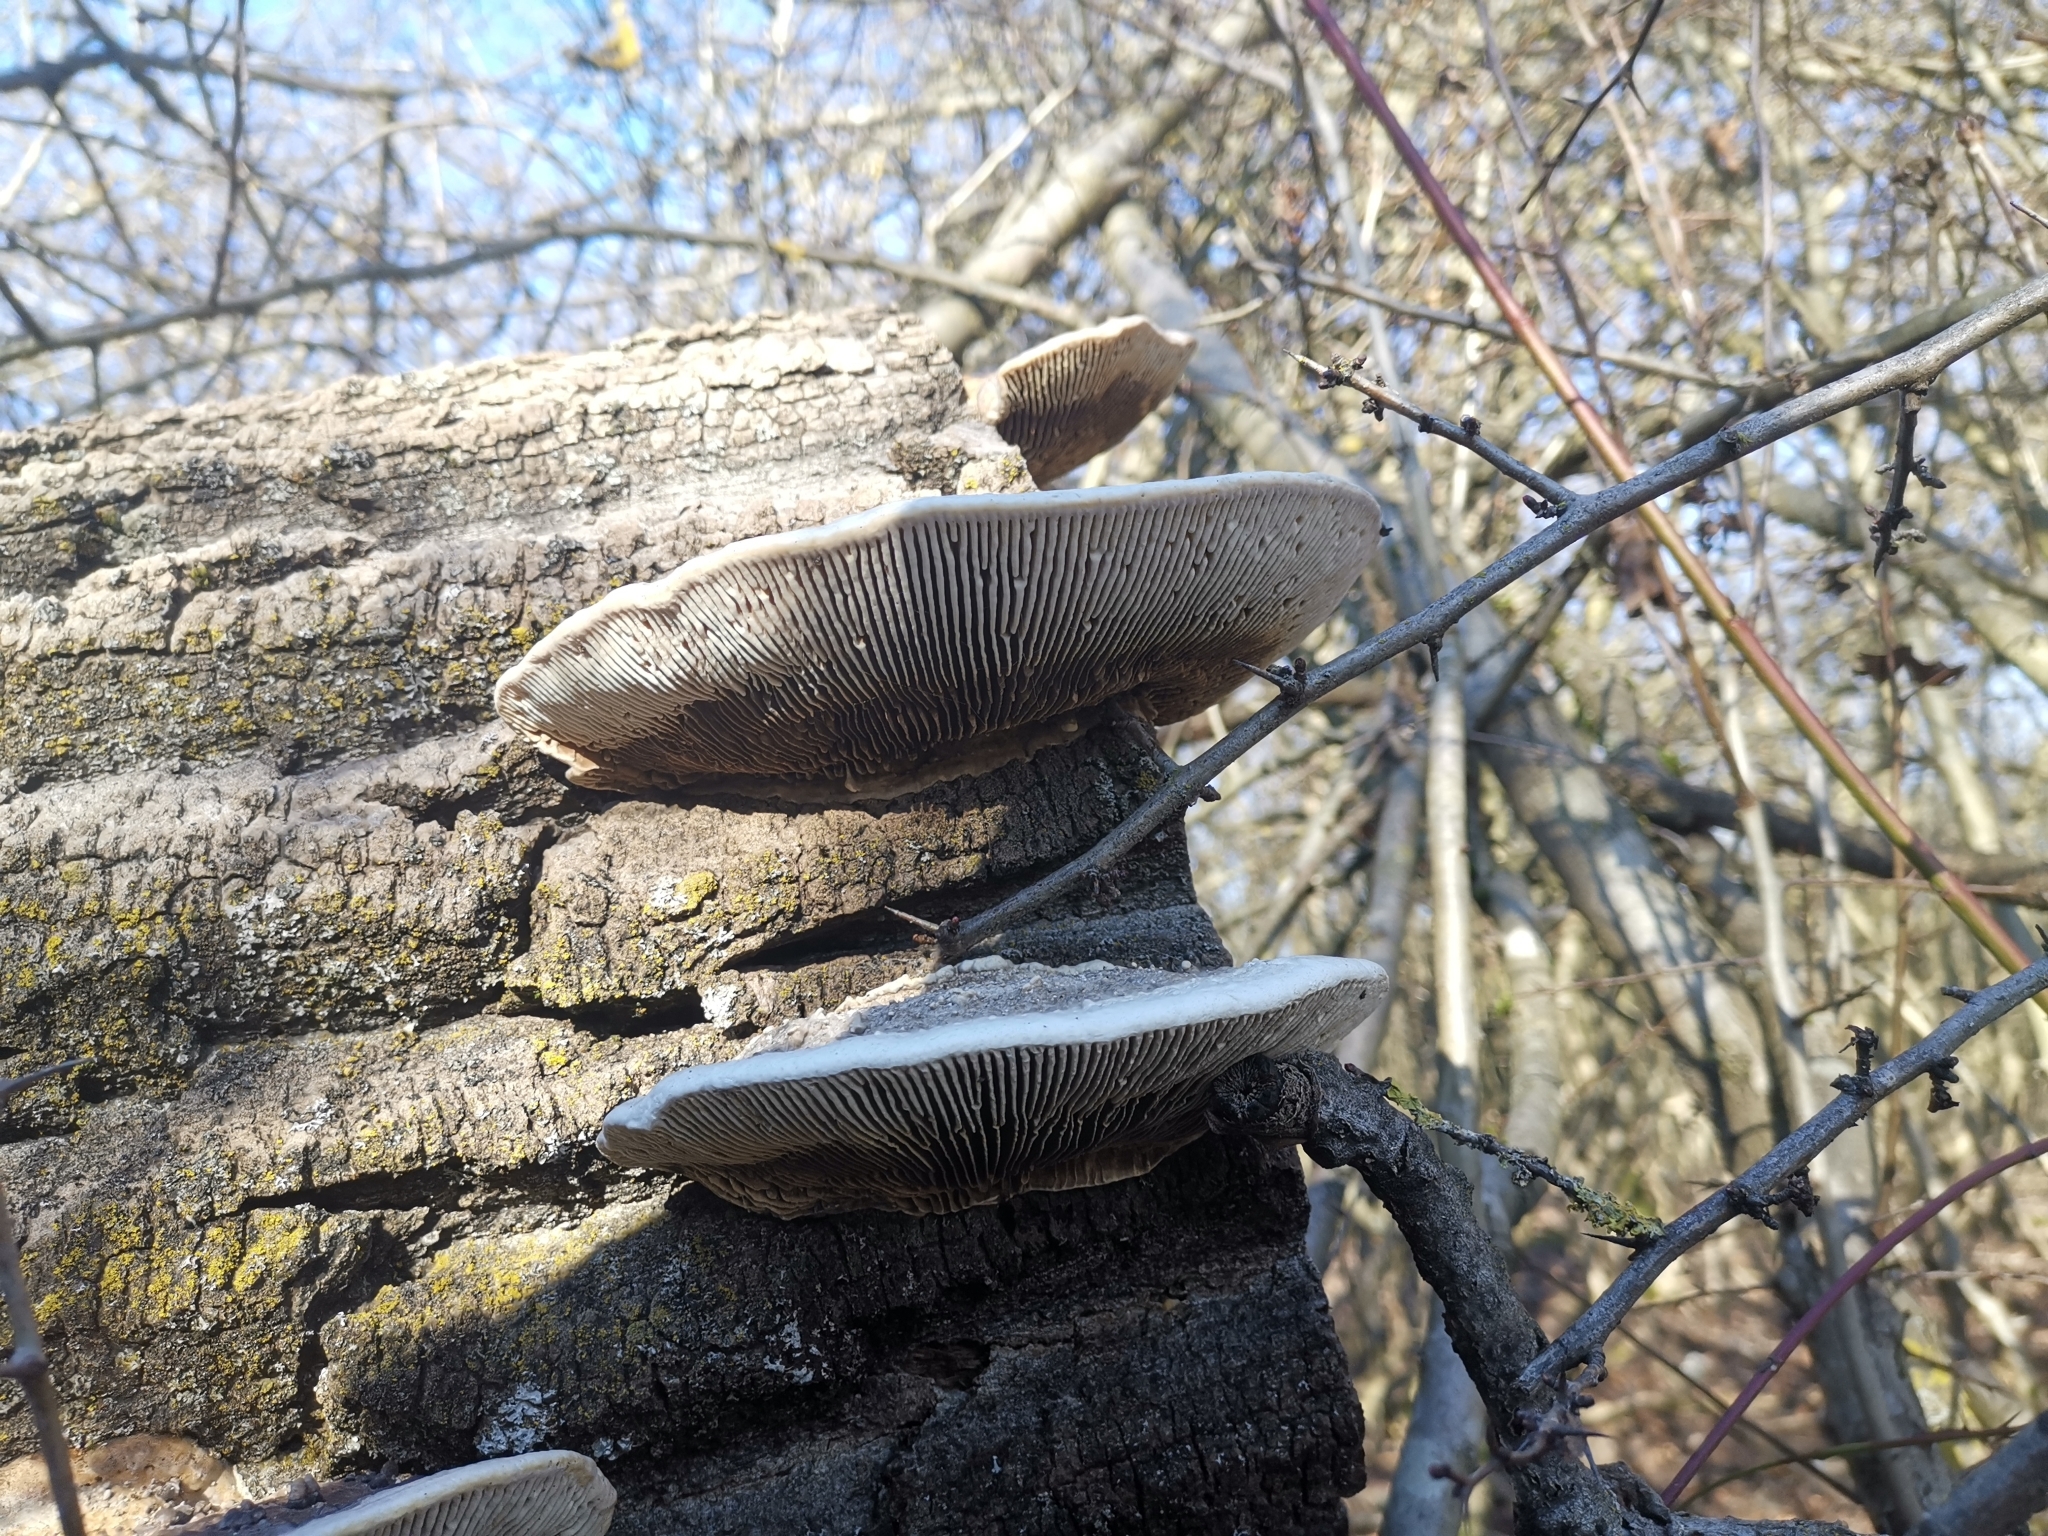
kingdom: Fungi
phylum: Basidiomycota
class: Agaricomycetes
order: Polyporales
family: Polyporaceae
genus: Cellulariella
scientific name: Cellulariella warnieri
